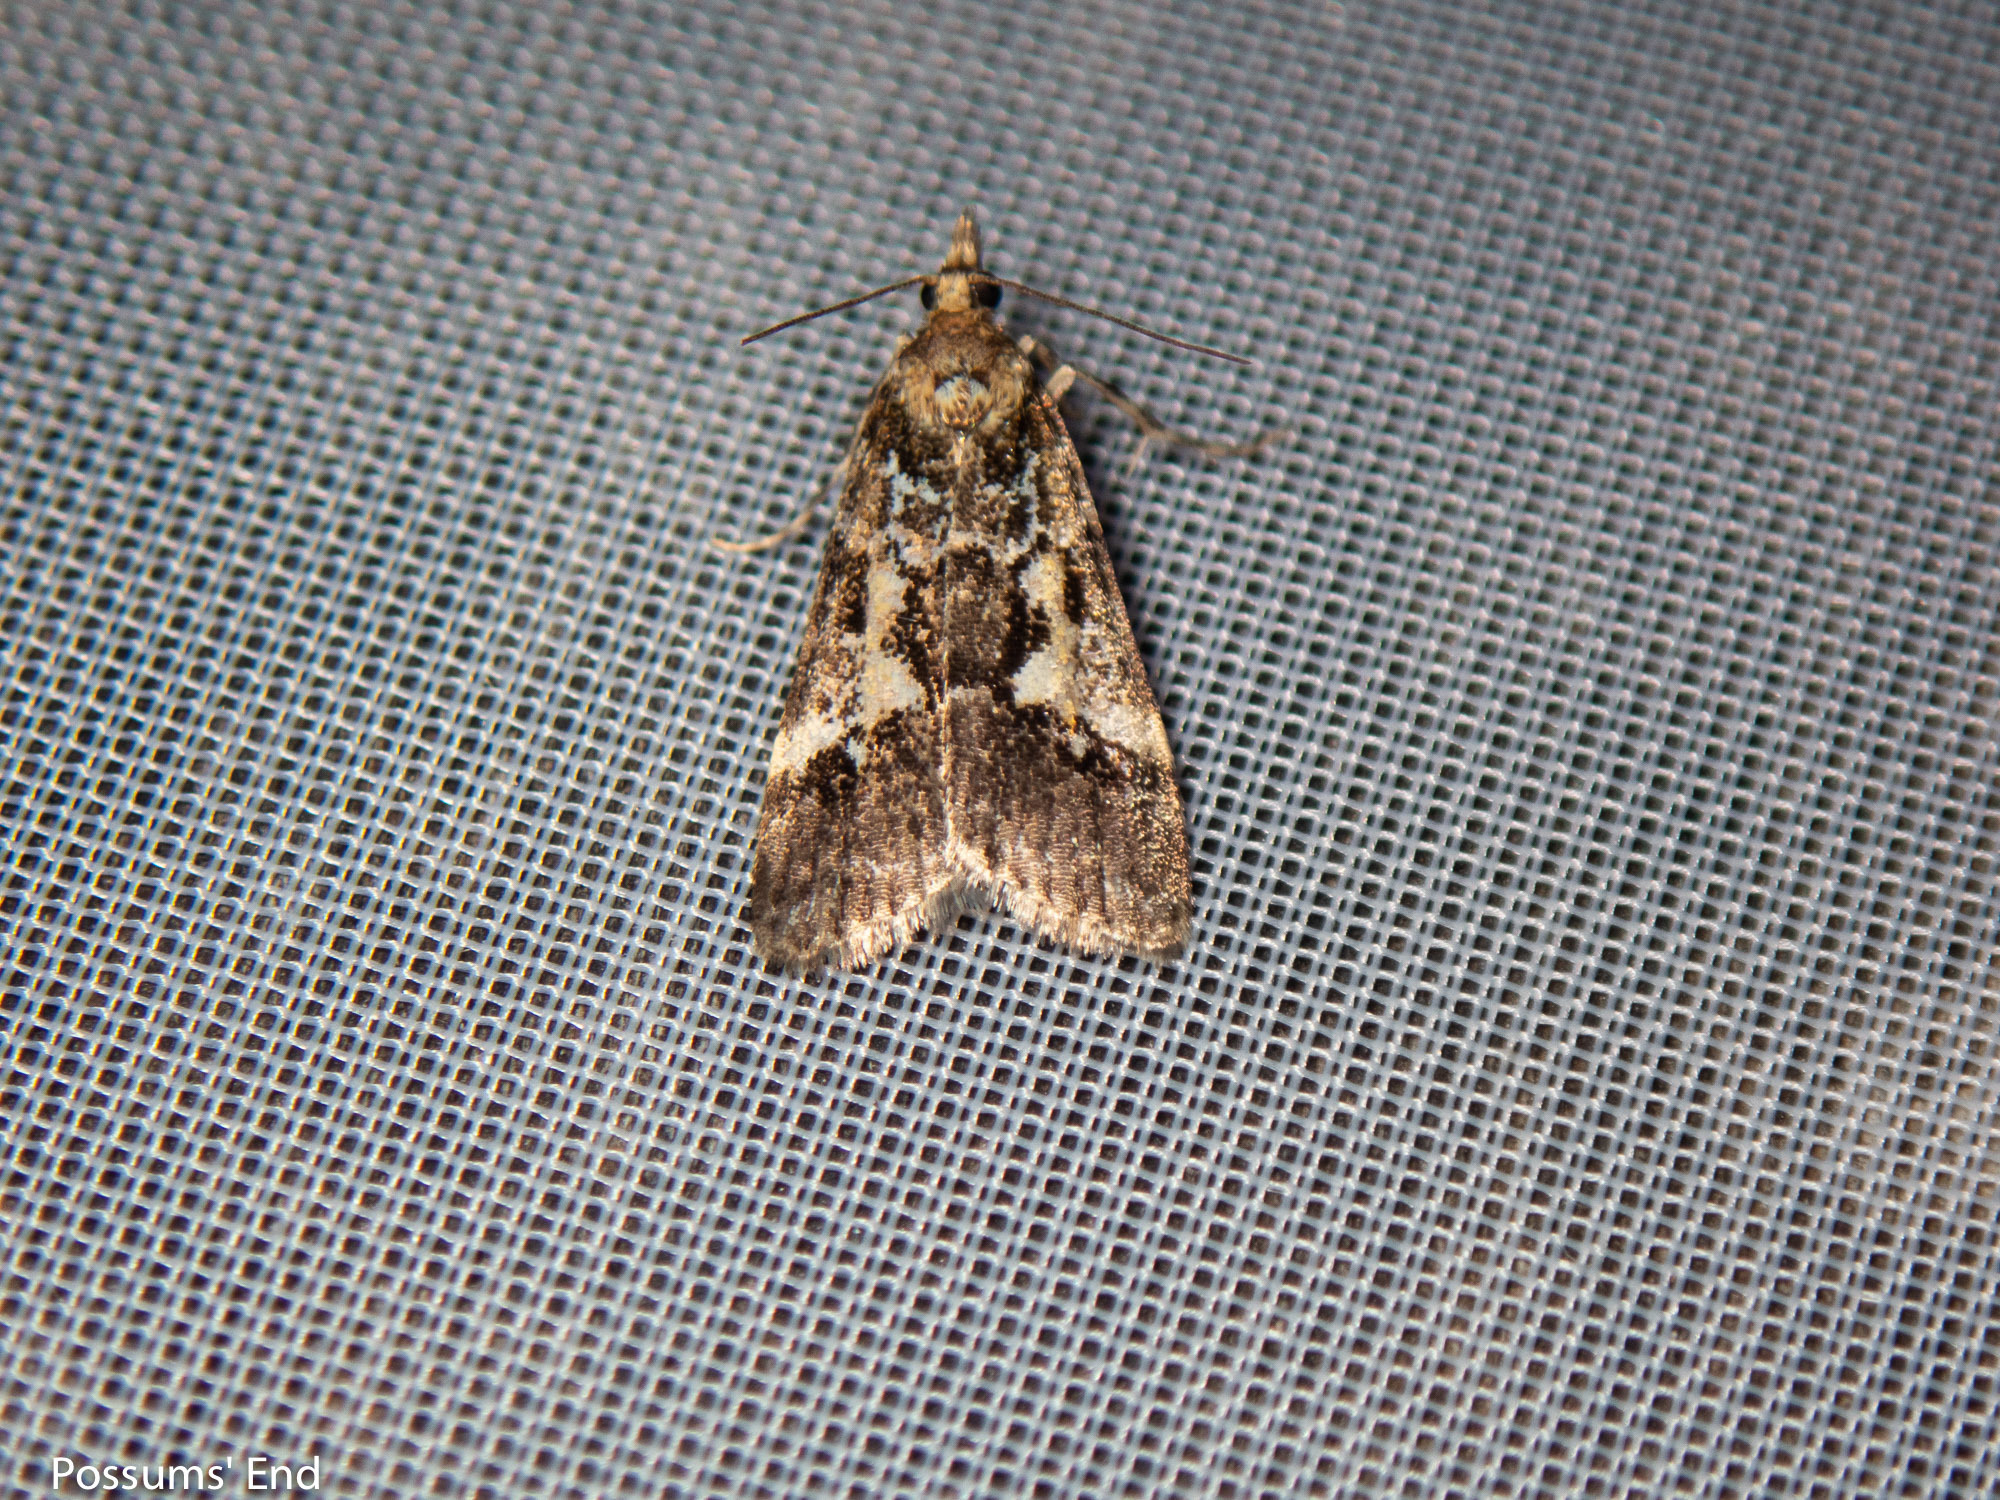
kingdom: Animalia
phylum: Arthropoda
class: Insecta
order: Lepidoptera
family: Crambidae
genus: Eudonia
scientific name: Eudonia characta
